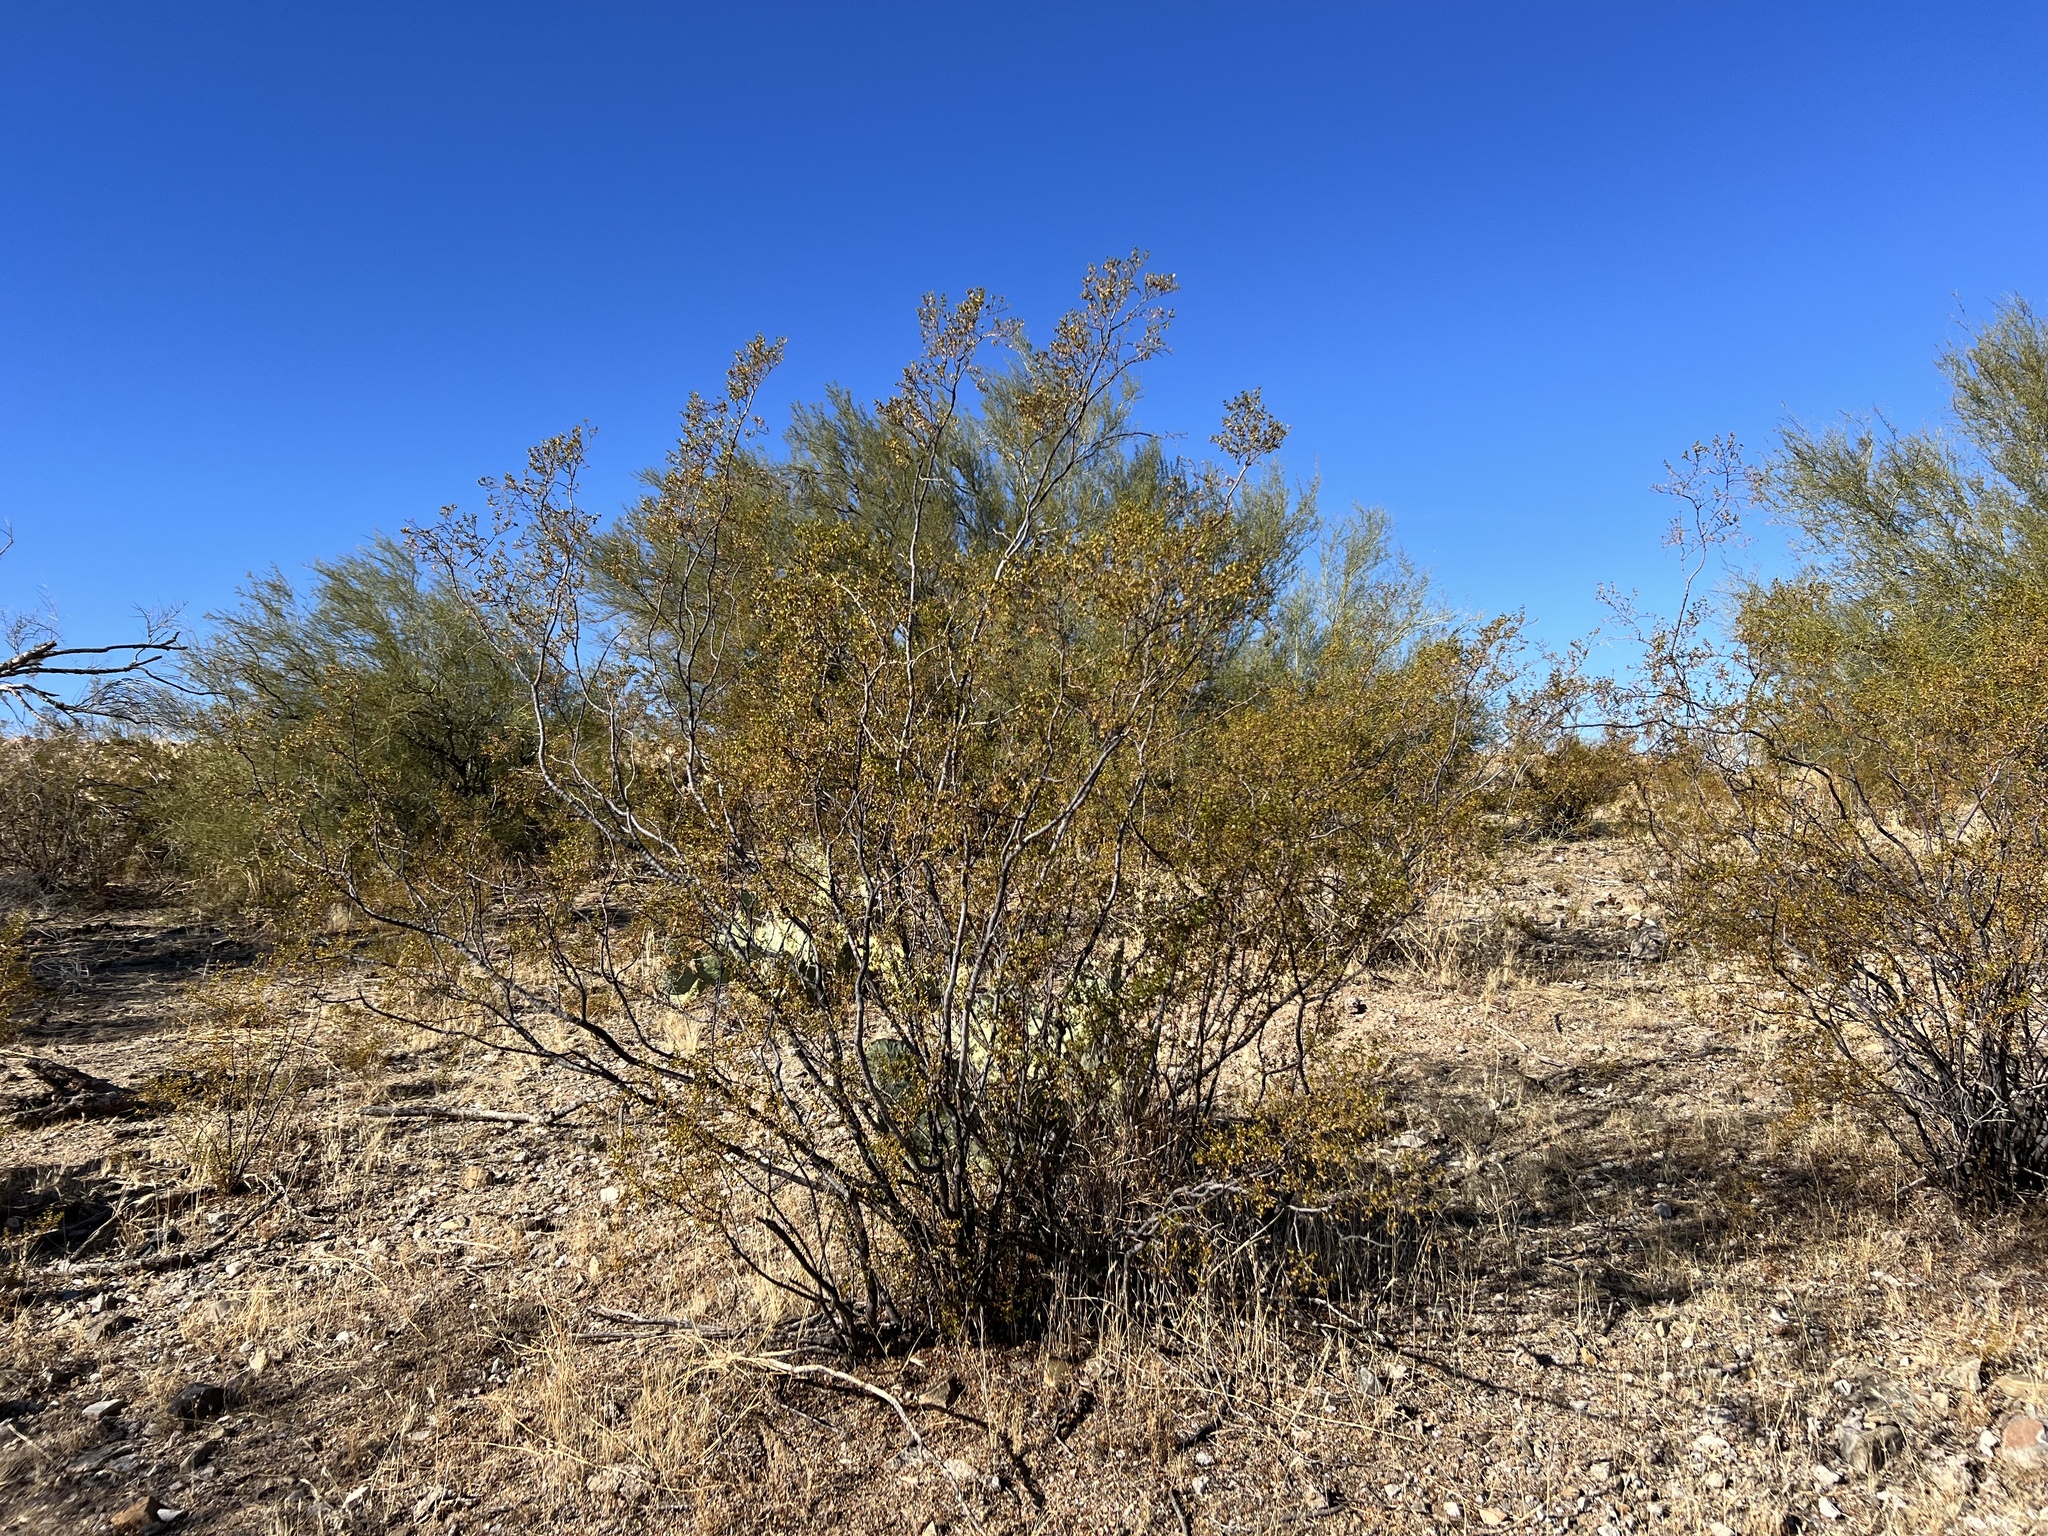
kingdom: Plantae
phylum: Tracheophyta
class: Magnoliopsida
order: Zygophyllales
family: Zygophyllaceae
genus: Larrea
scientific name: Larrea tridentata
